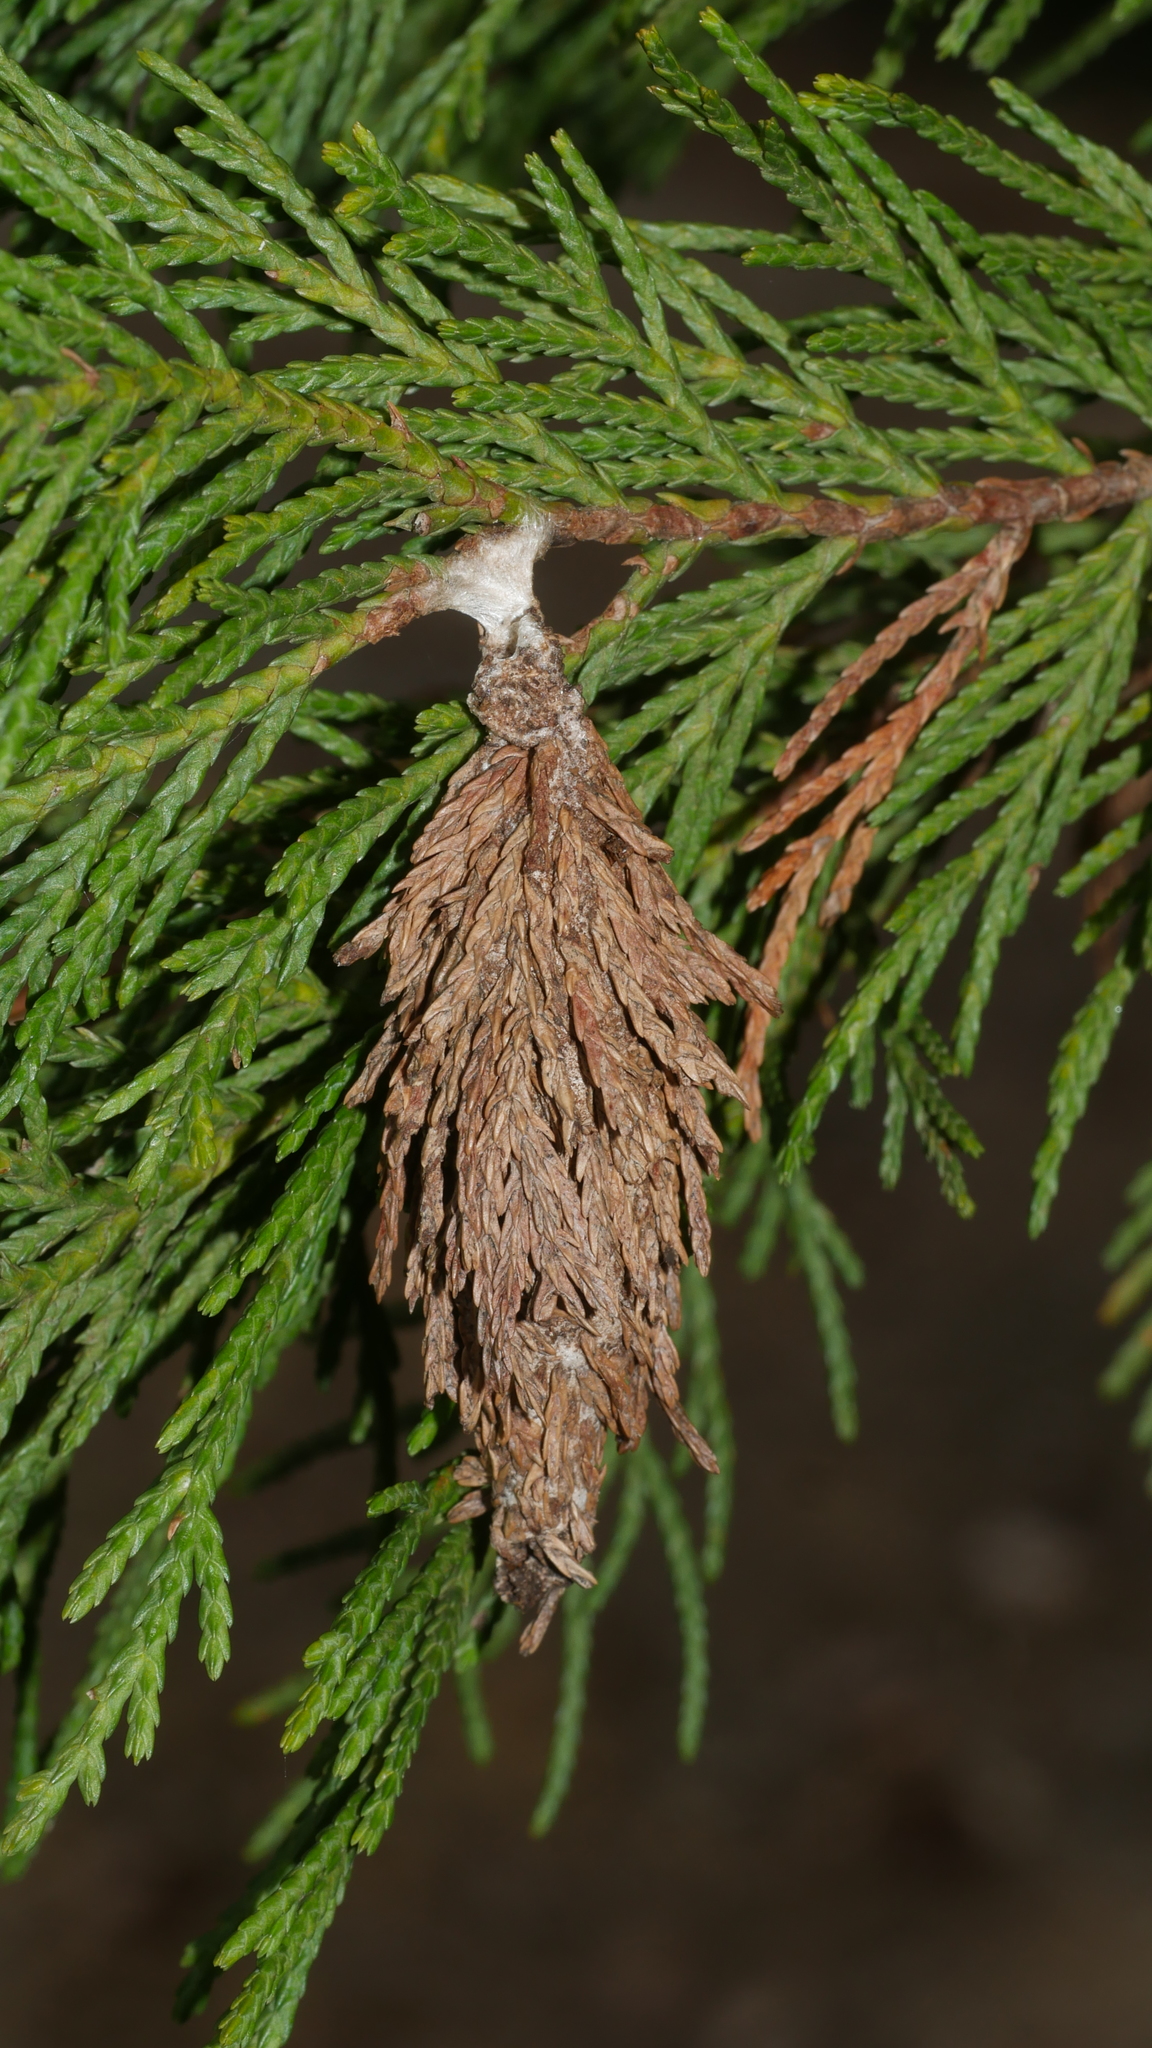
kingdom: Animalia
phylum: Arthropoda
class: Insecta
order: Lepidoptera
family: Psychidae
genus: Thyridopteryx
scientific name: Thyridopteryx ephemeraeformis
